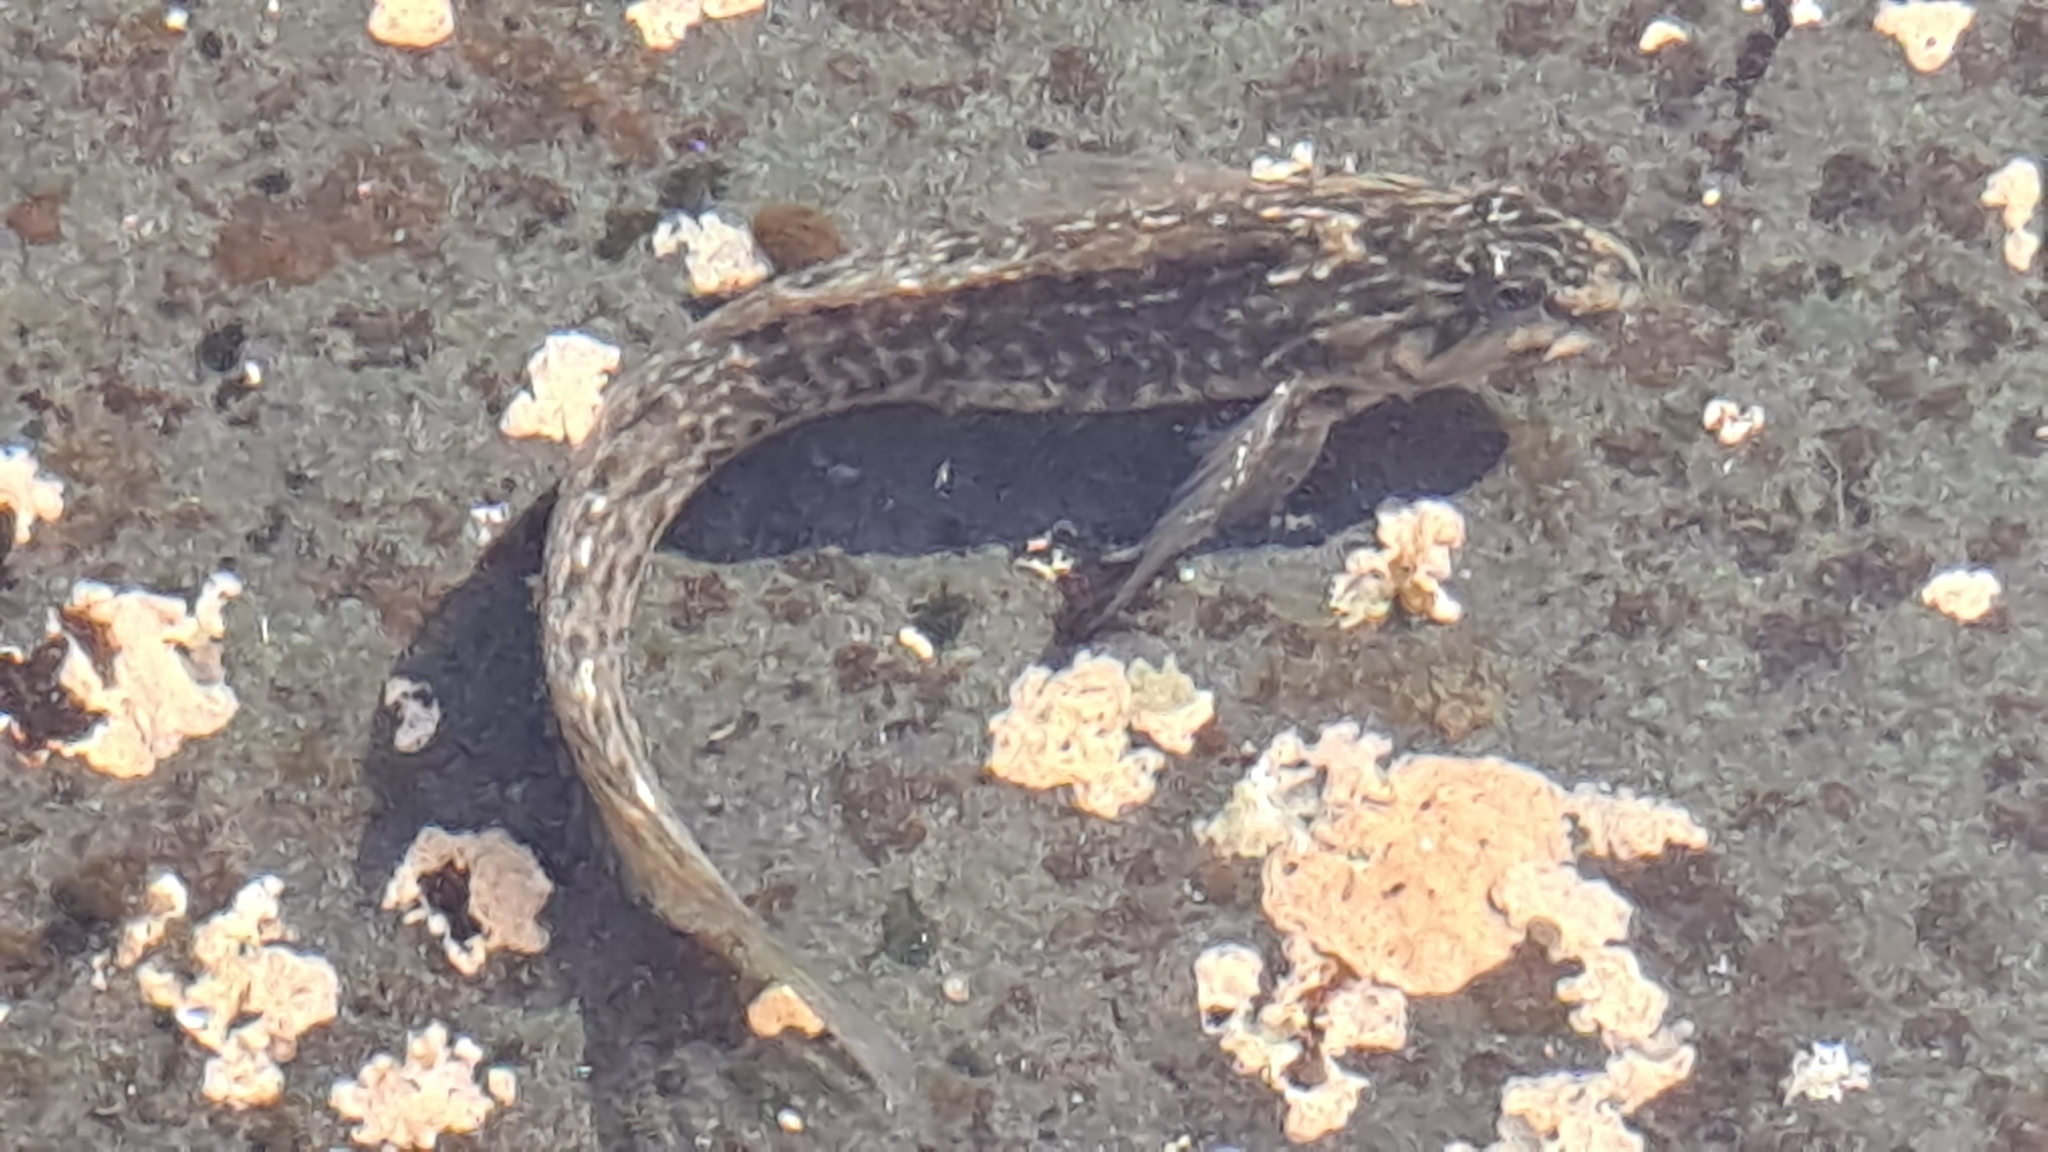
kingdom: Animalia
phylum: Chordata
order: Perciformes
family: Blenniidae
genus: Parablennius
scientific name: Parablennius parvicornis
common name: Rock-pool blenny
